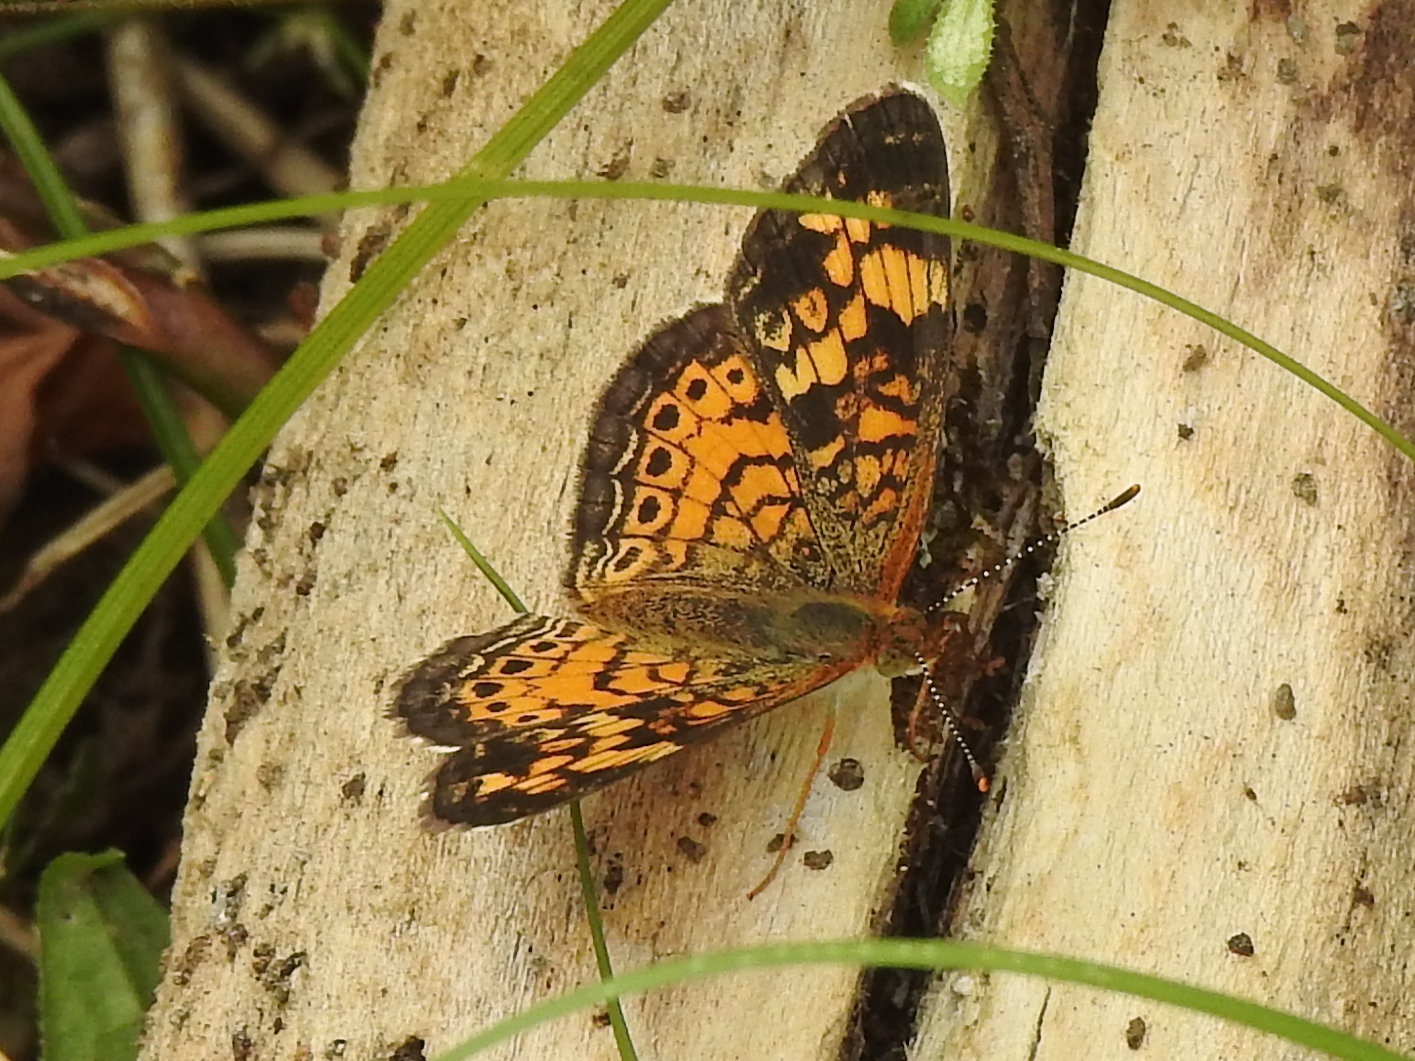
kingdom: Animalia
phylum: Arthropoda
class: Insecta
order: Lepidoptera
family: Nymphalidae
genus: Phyciodes
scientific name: Phyciodes tharos
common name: Pearl crescent
